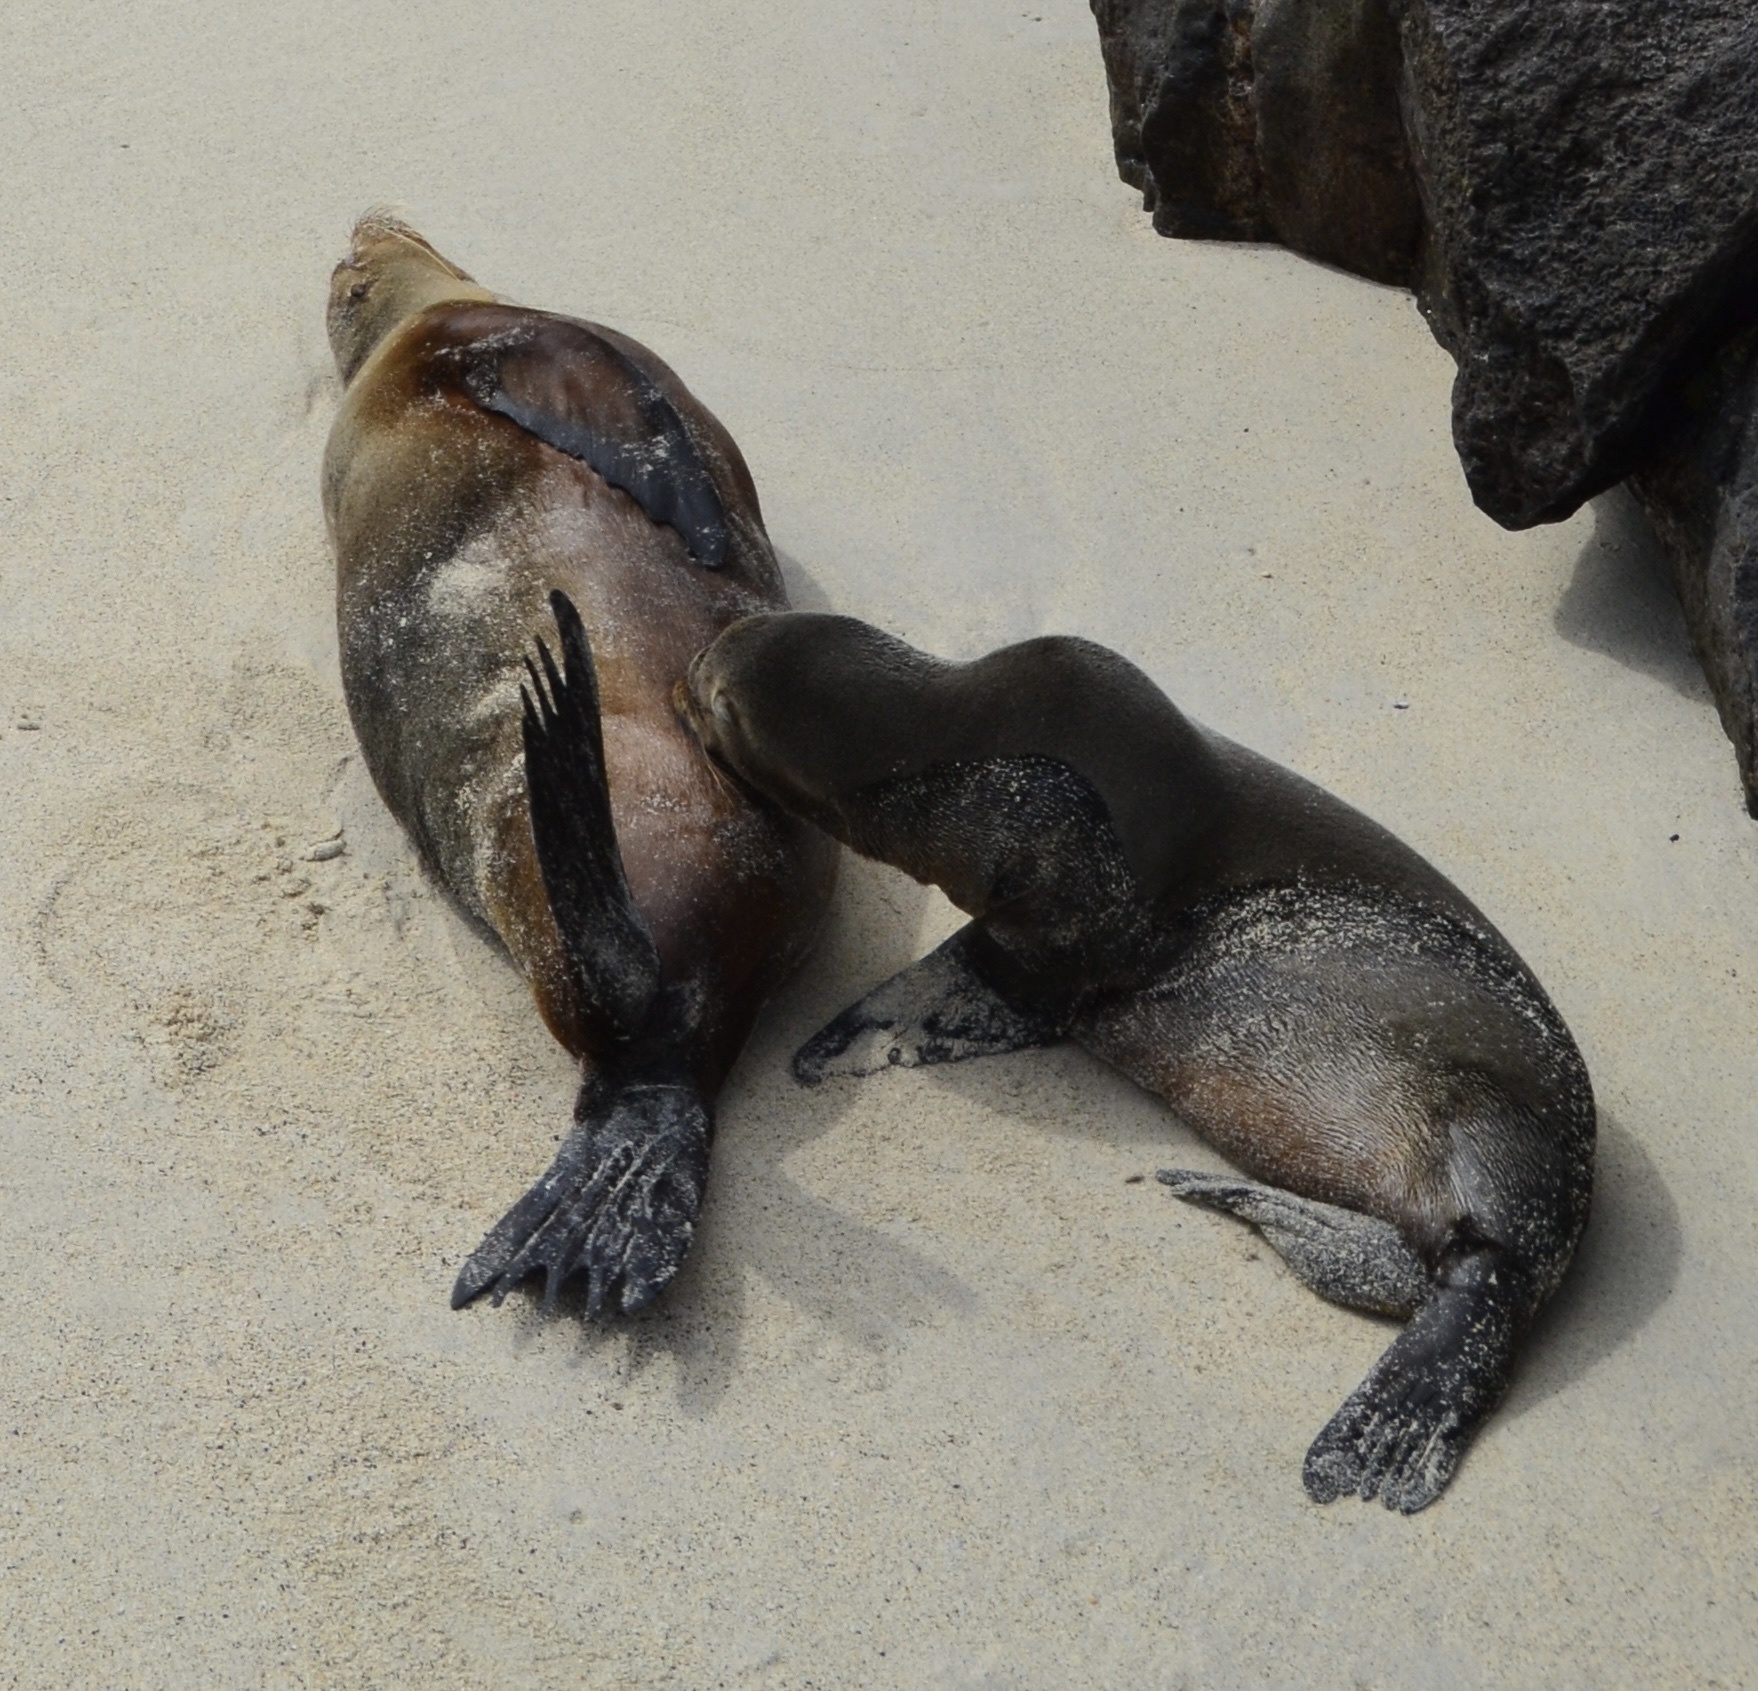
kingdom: Animalia
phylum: Chordata
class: Mammalia
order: Carnivora
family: Otariidae
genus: Zalophus
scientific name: Zalophus wollebaeki
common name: Galapagos sea lion
